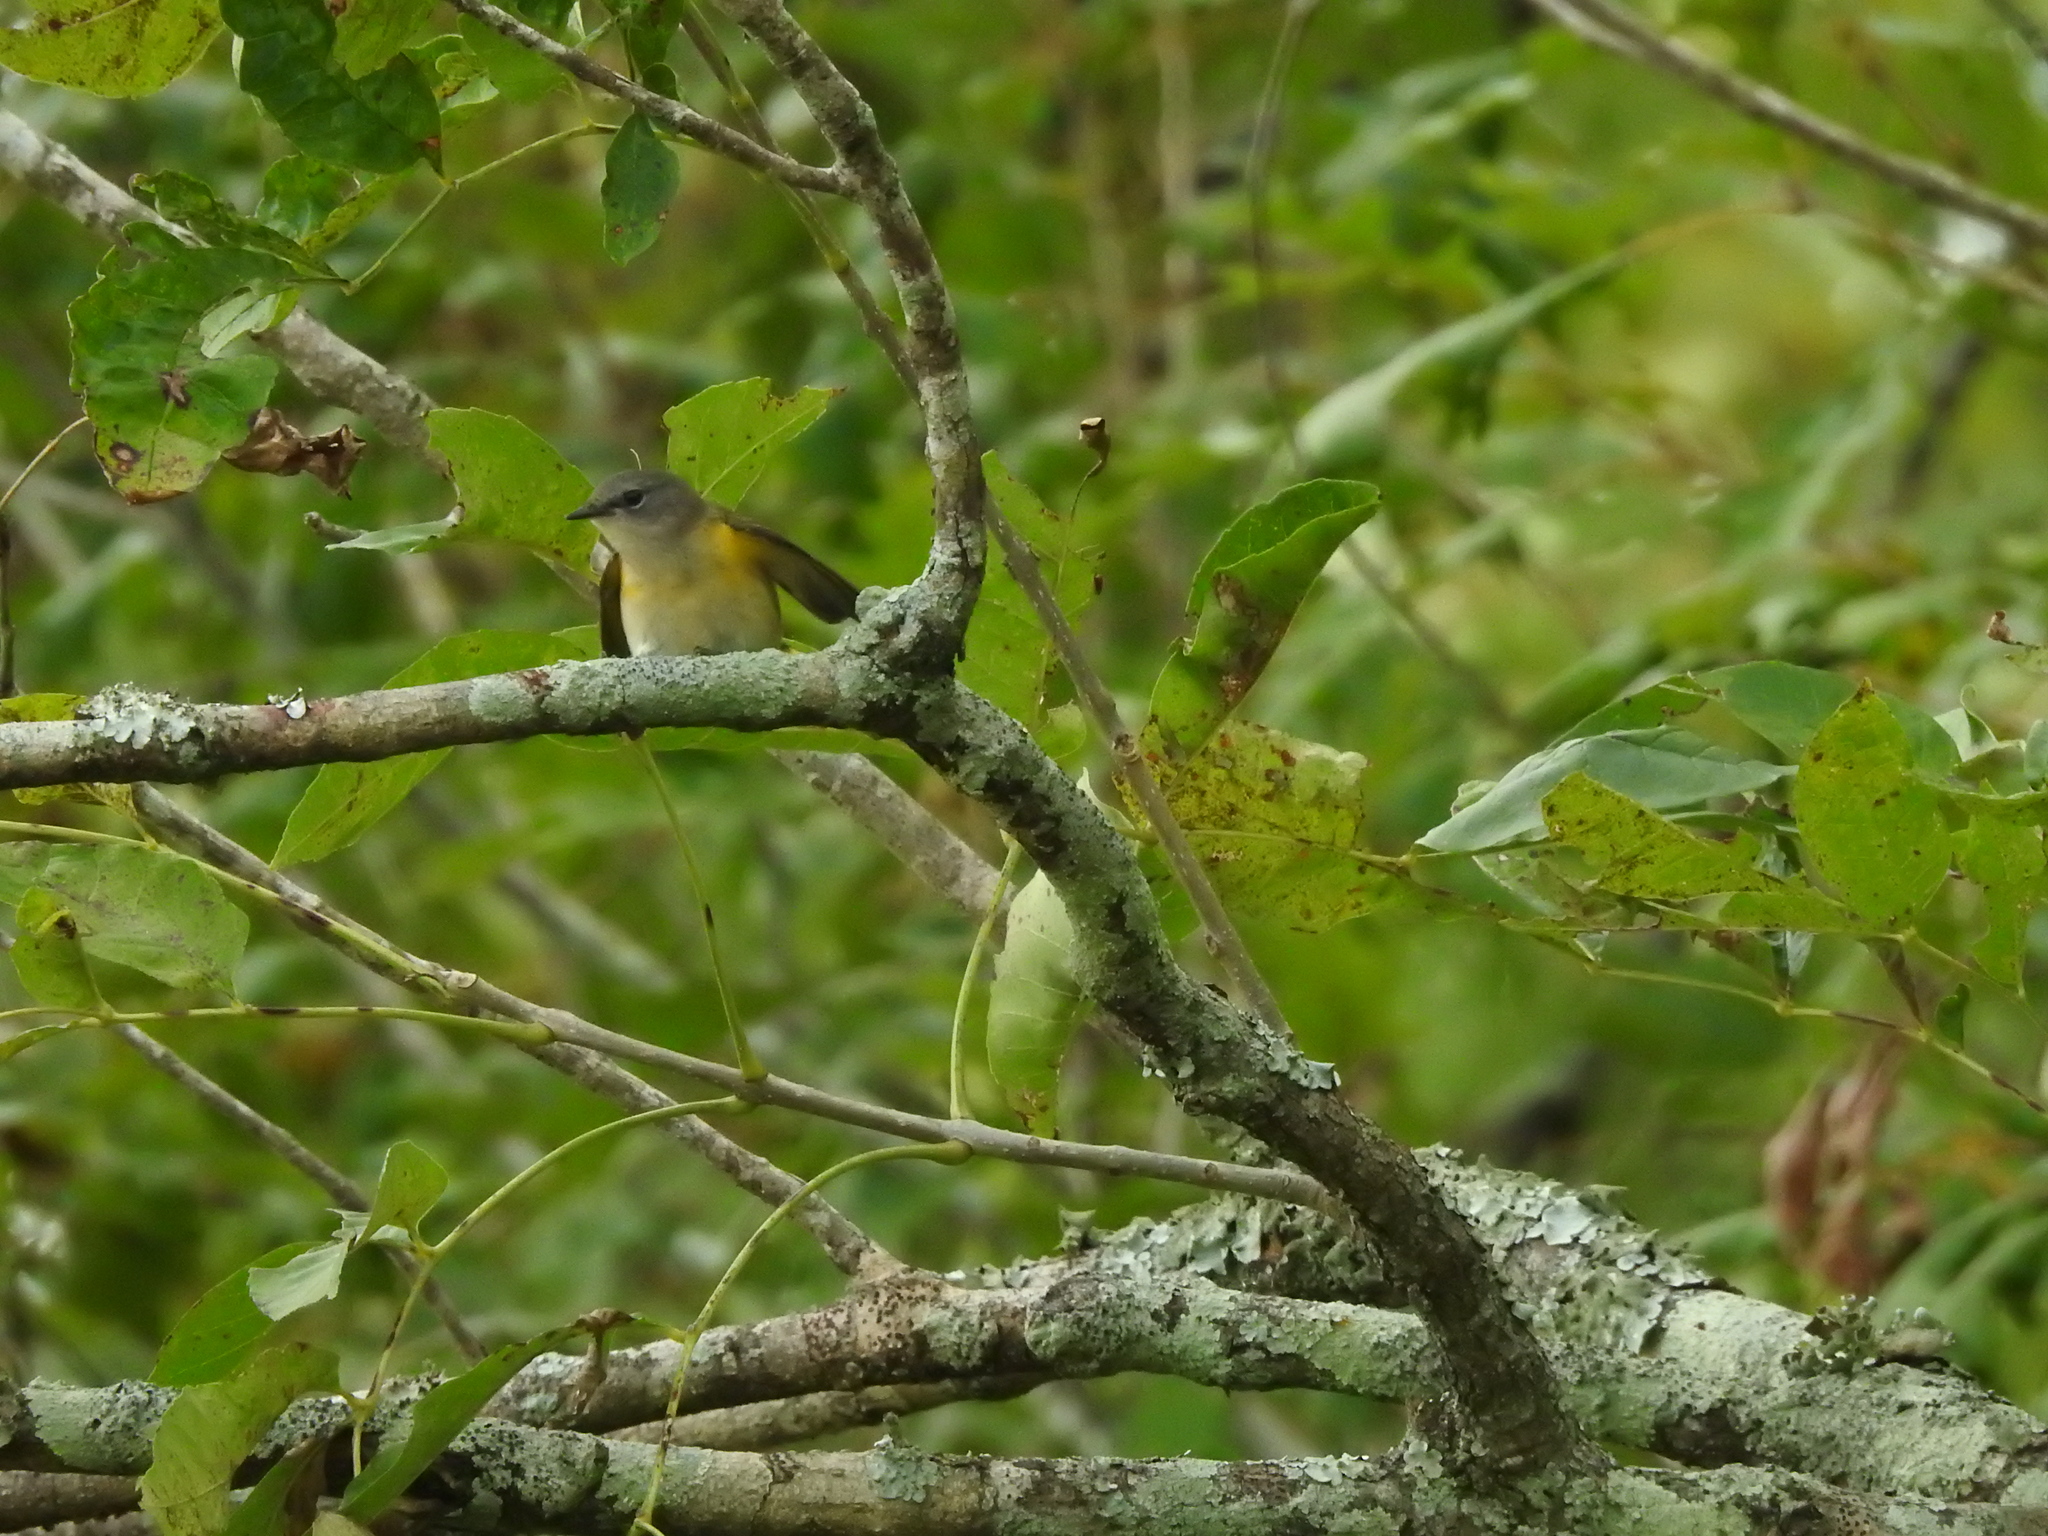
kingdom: Animalia
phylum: Chordata
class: Aves
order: Passeriformes
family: Parulidae
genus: Setophaga
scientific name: Setophaga ruticilla
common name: American redstart
